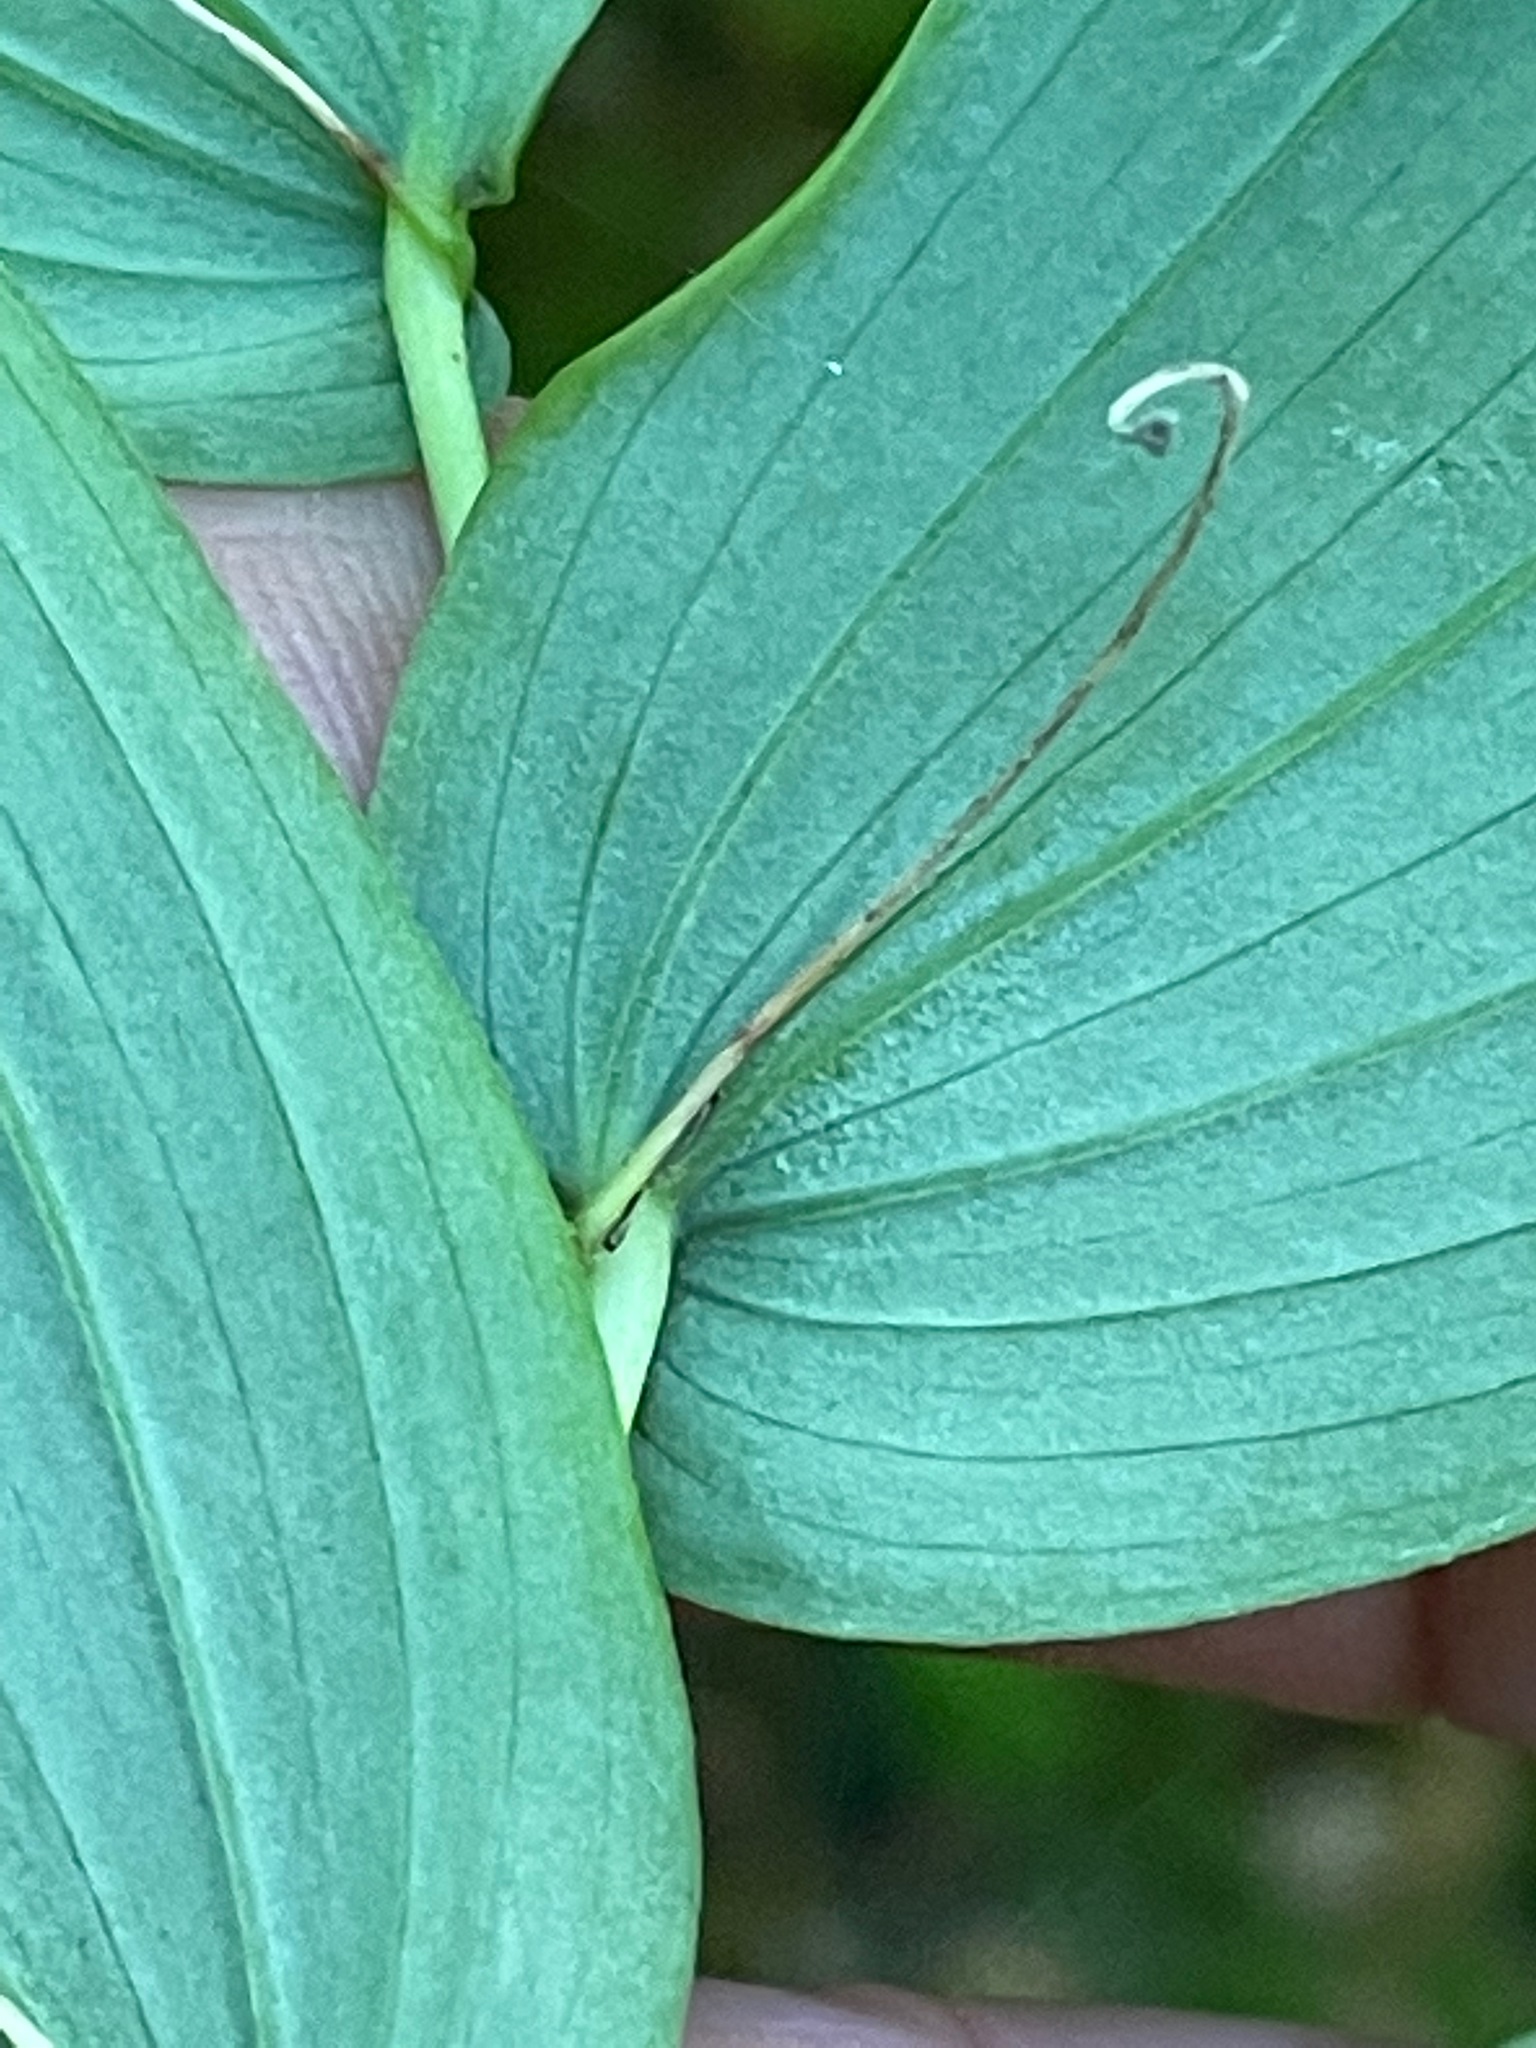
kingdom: Plantae
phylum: Tracheophyta
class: Liliopsida
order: Liliales
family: Liliaceae
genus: Streptopus
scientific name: Streptopus amplexifolius
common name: Clasp twisted stalk
